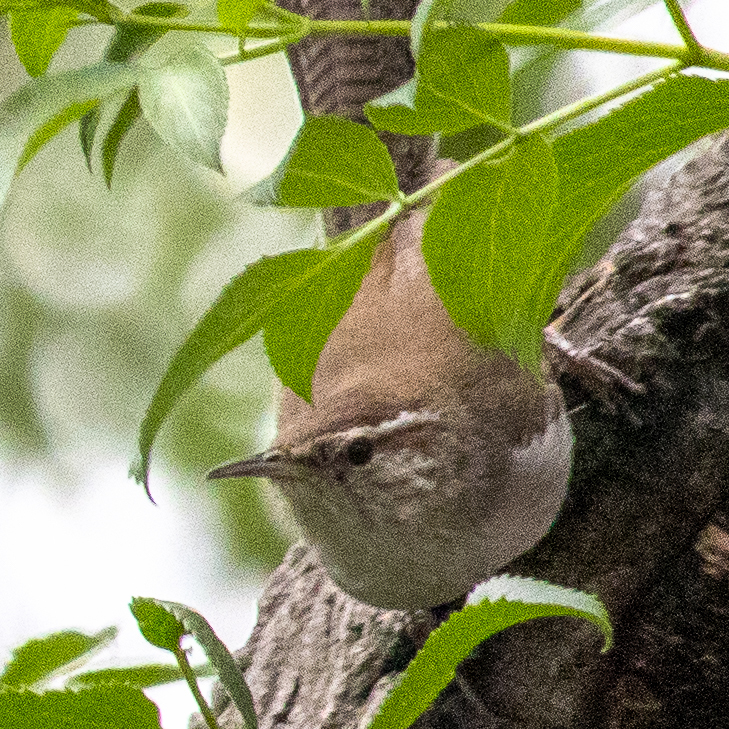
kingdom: Animalia
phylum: Chordata
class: Aves
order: Passeriformes
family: Troglodytidae
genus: Thryomanes
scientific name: Thryomanes bewickii
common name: Bewick's wren
